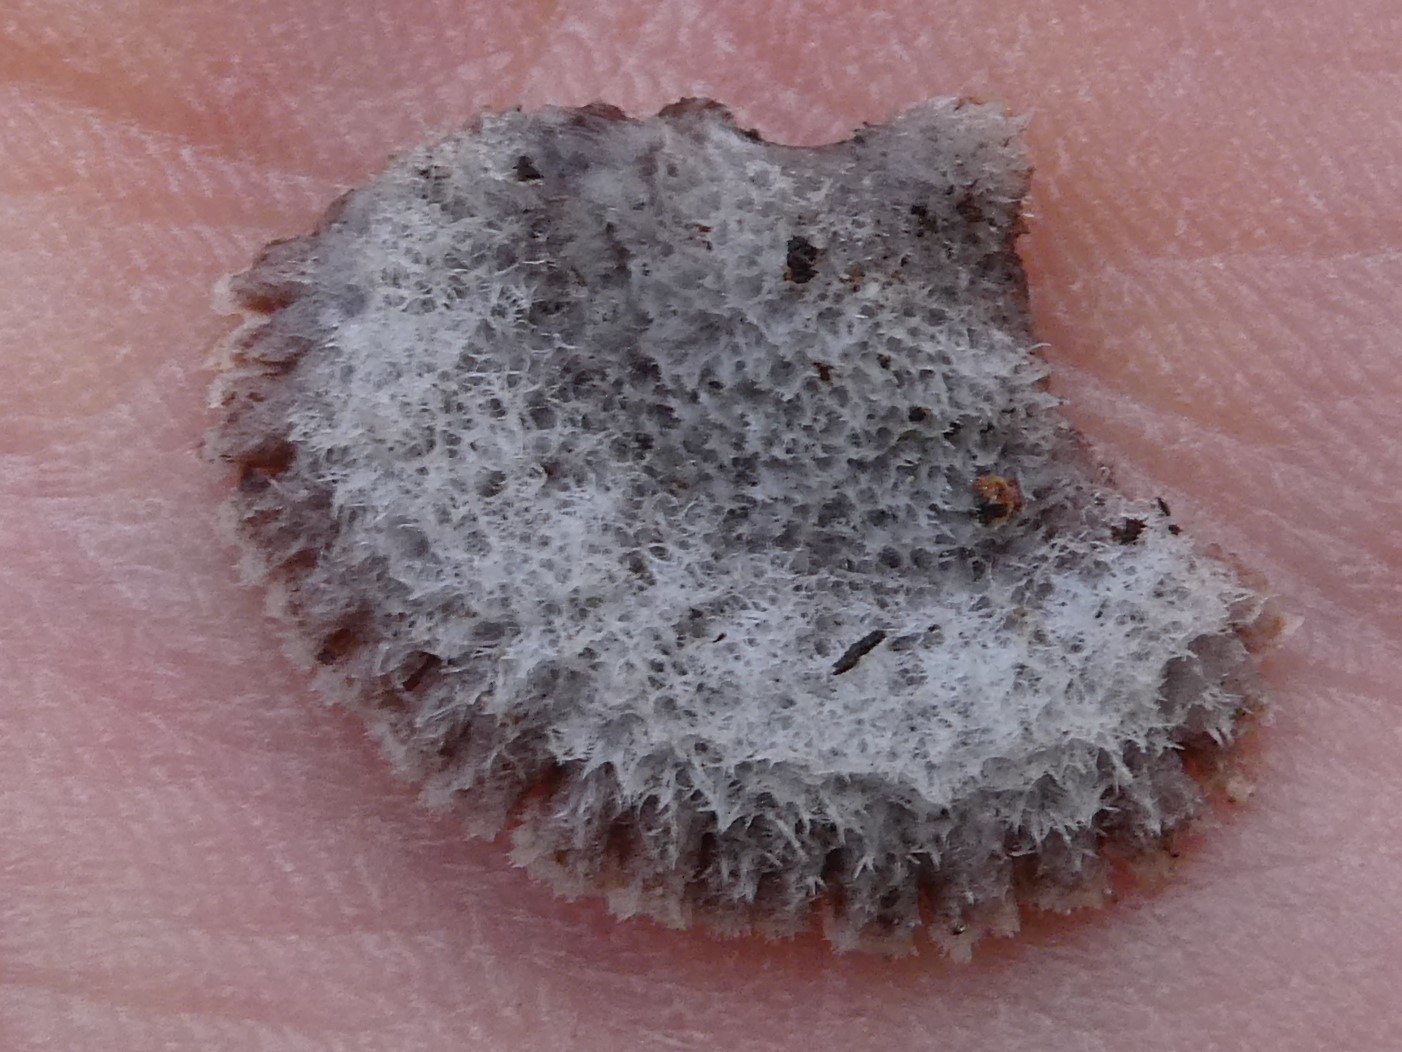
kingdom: Fungi
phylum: Basidiomycota
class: Agaricomycetes
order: Agaricales
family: Schizophyllaceae
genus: Schizophyllum
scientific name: Schizophyllum commune
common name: Common porecrust
